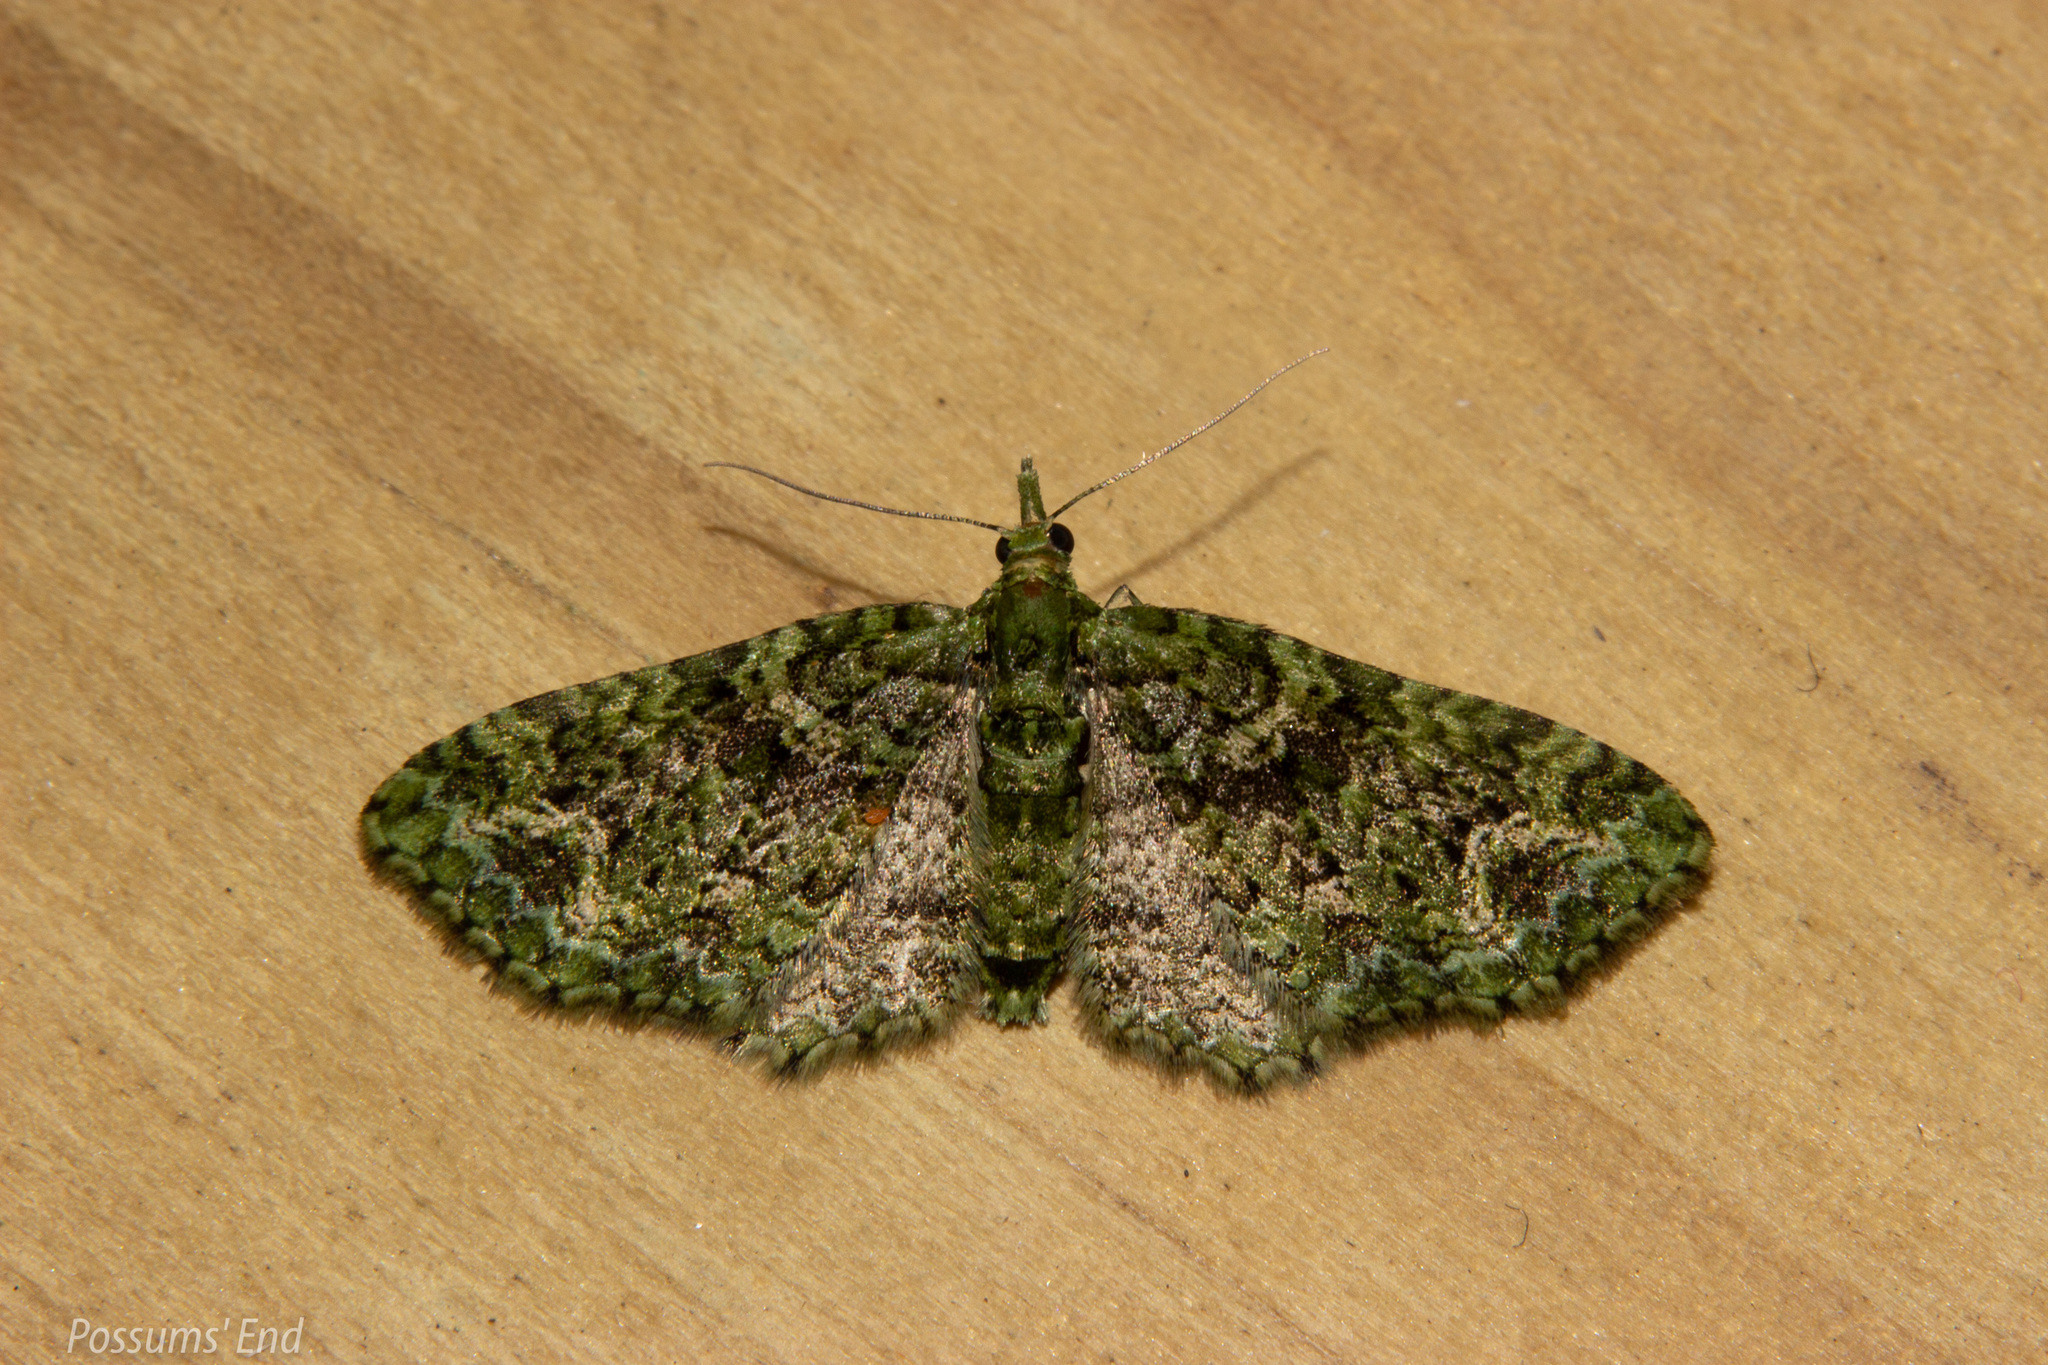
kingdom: Animalia
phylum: Arthropoda
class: Insecta
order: Lepidoptera
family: Geometridae
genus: Pasiphila
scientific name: Pasiphila muscosata
